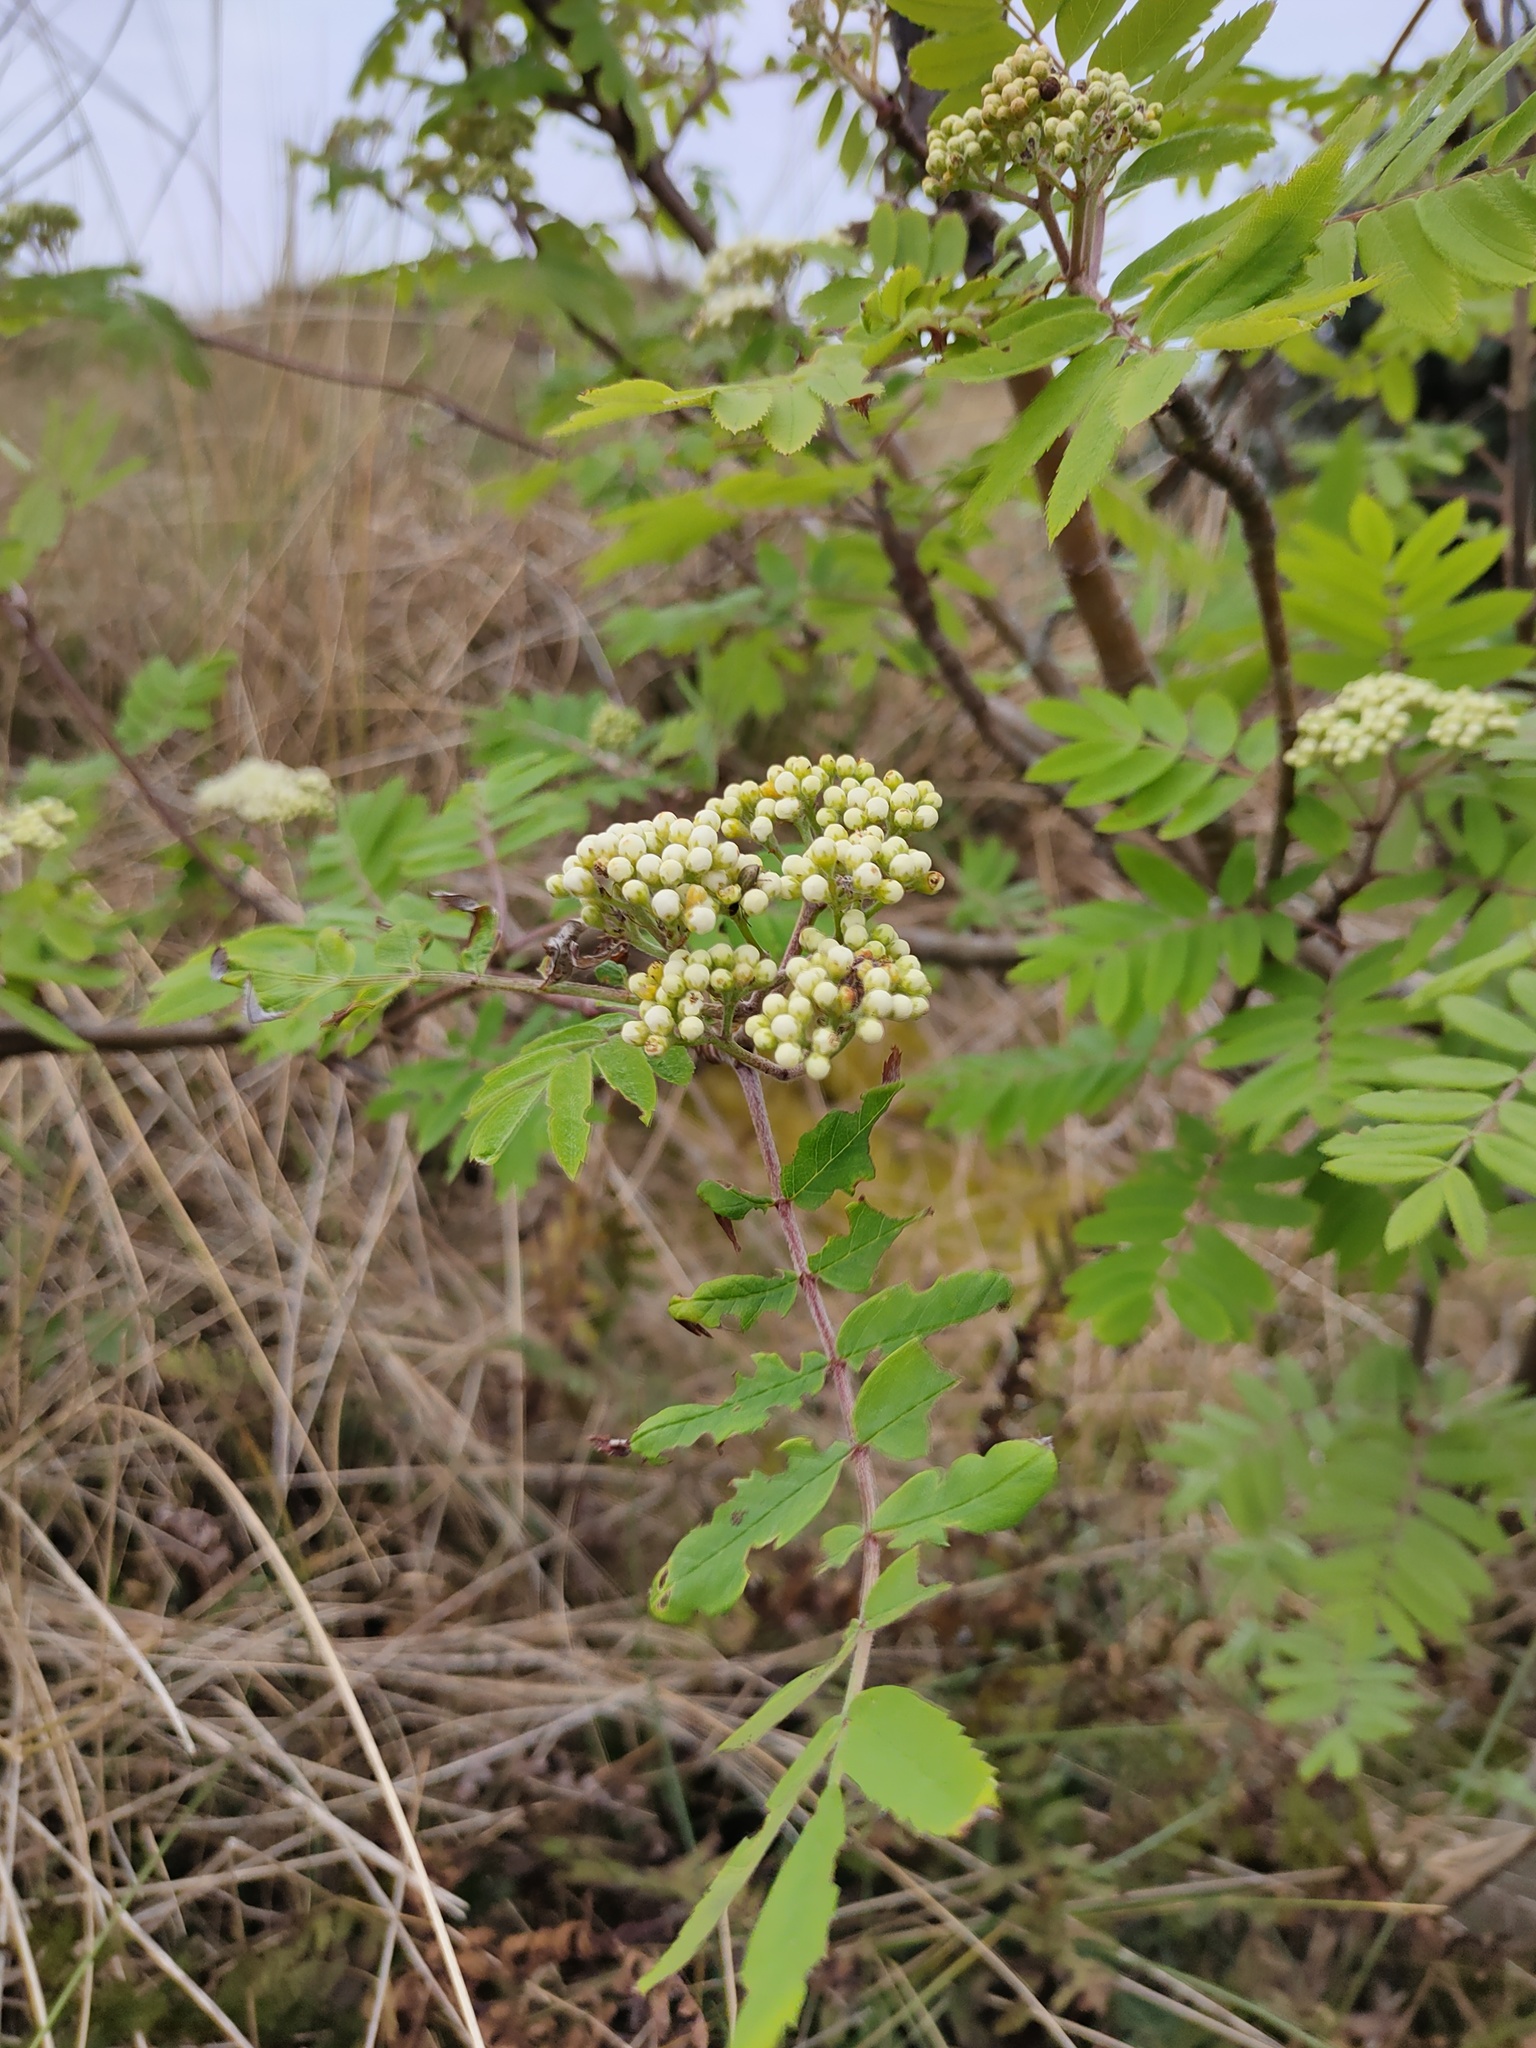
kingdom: Plantae
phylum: Tracheophyta
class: Magnoliopsida
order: Rosales
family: Rosaceae
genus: Sorbus
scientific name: Sorbus aucuparia
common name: Rowan
